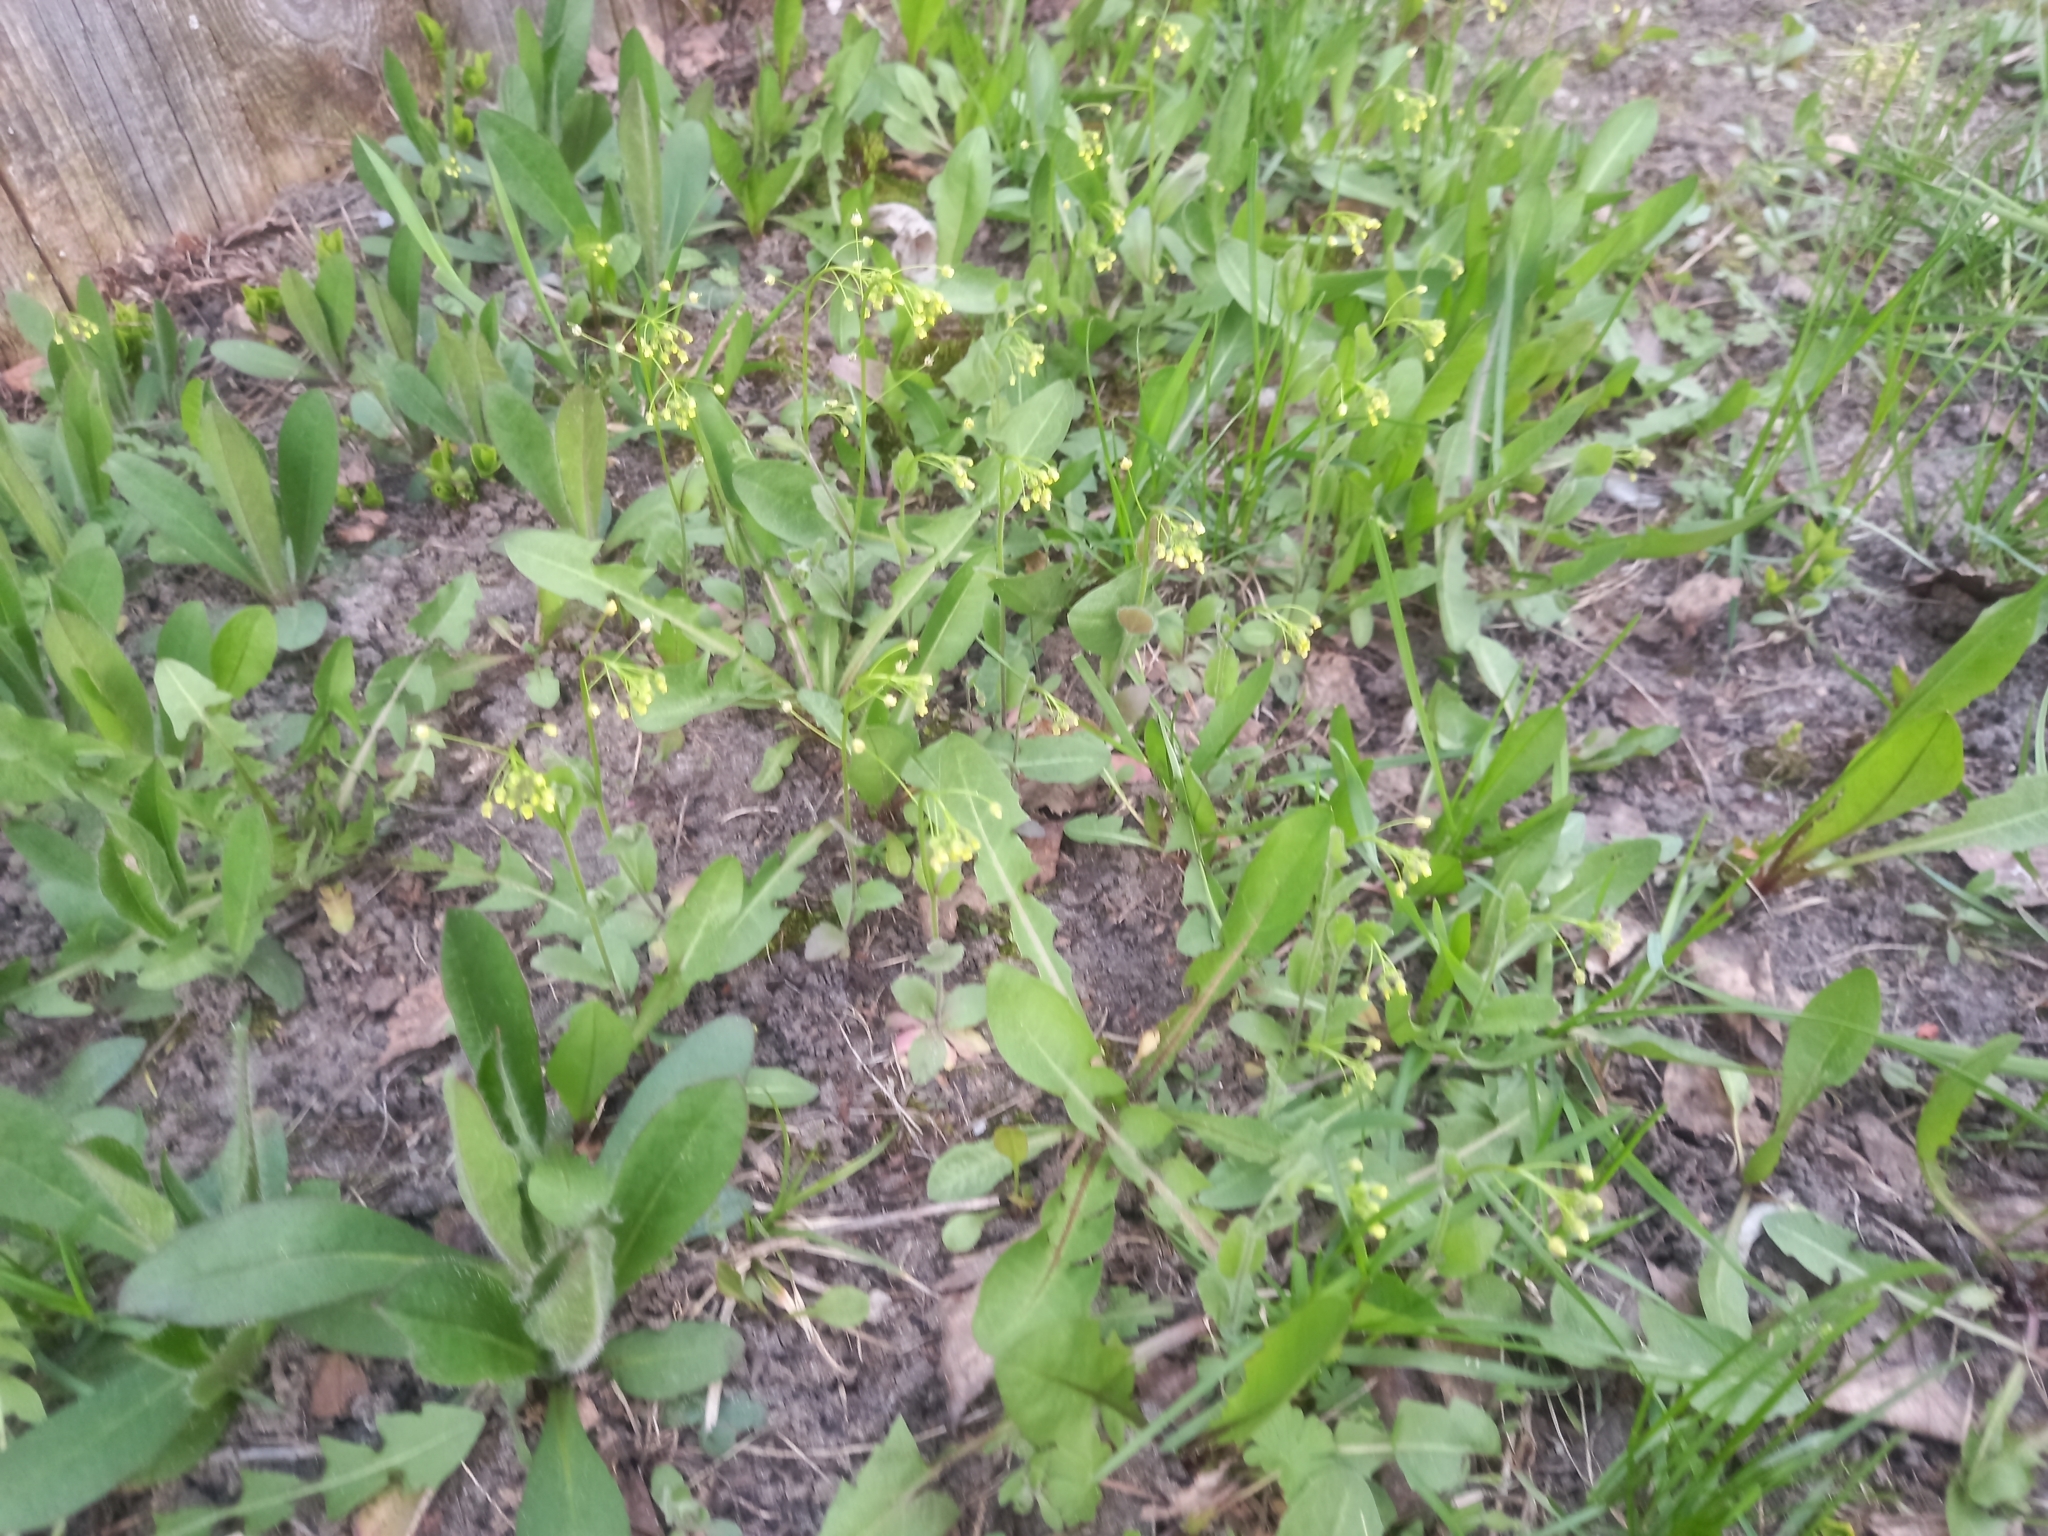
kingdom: Plantae
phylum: Tracheophyta
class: Magnoliopsida
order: Brassicales
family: Brassicaceae
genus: Draba
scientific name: Draba nemorosa
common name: Wood whitlow-grass
